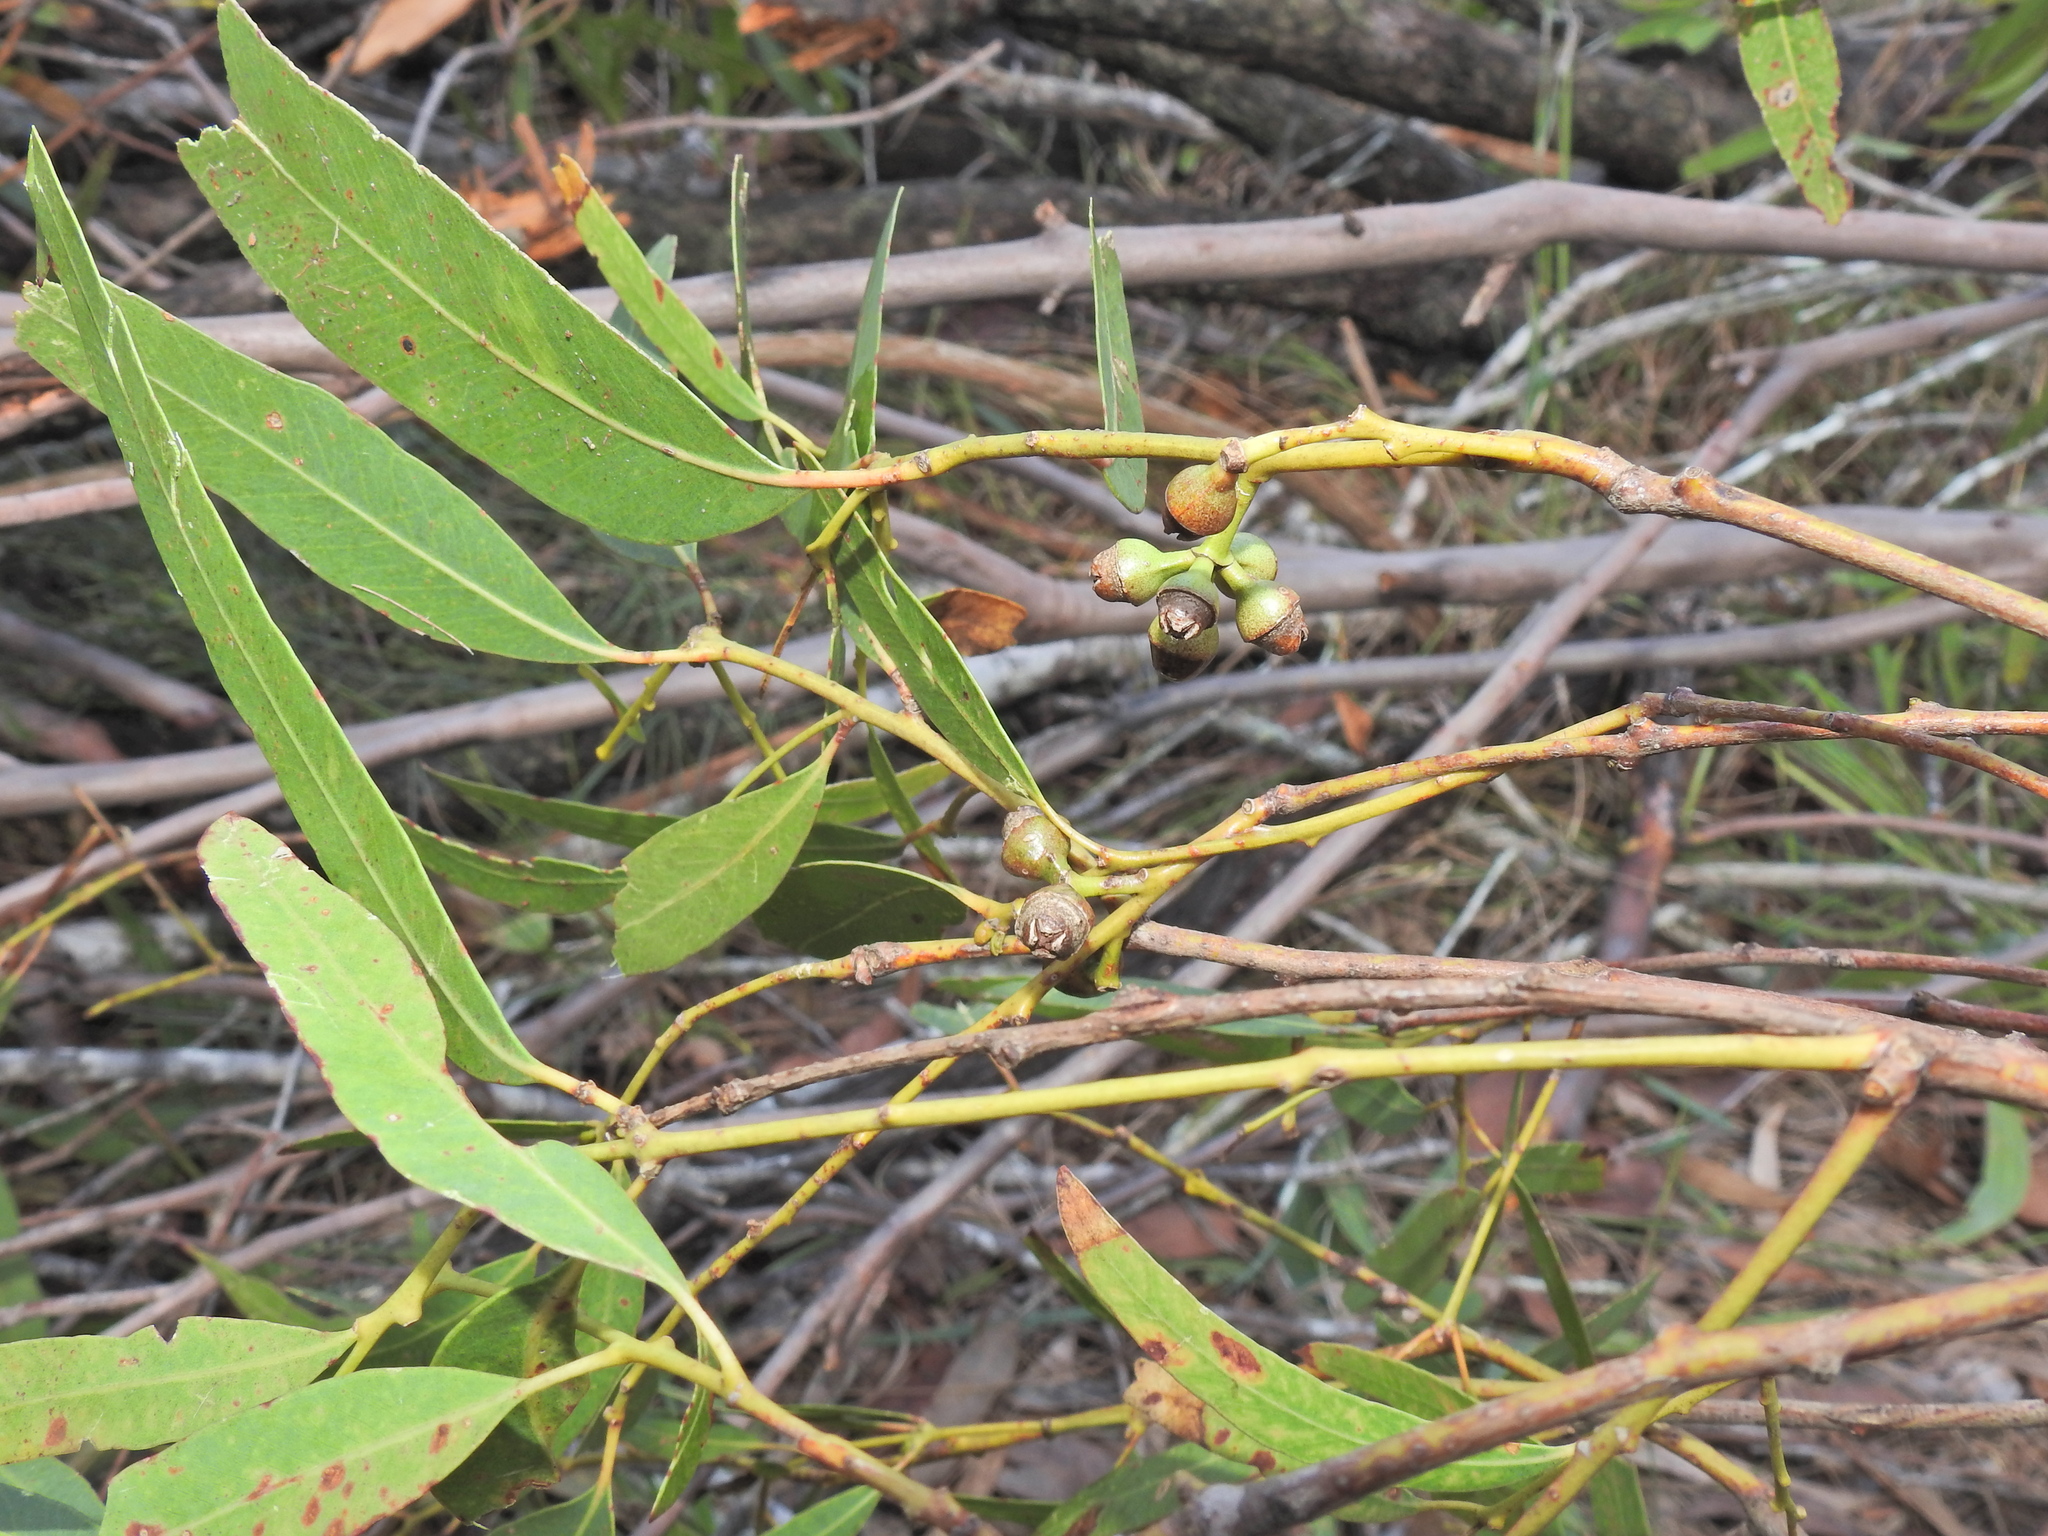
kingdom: Plantae
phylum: Tracheophyta
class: Magnoliopsida
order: Myrtales
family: Myrtaceae
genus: Eucalyptus
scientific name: Eucalyptus exserta
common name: Peppermint-bendo
